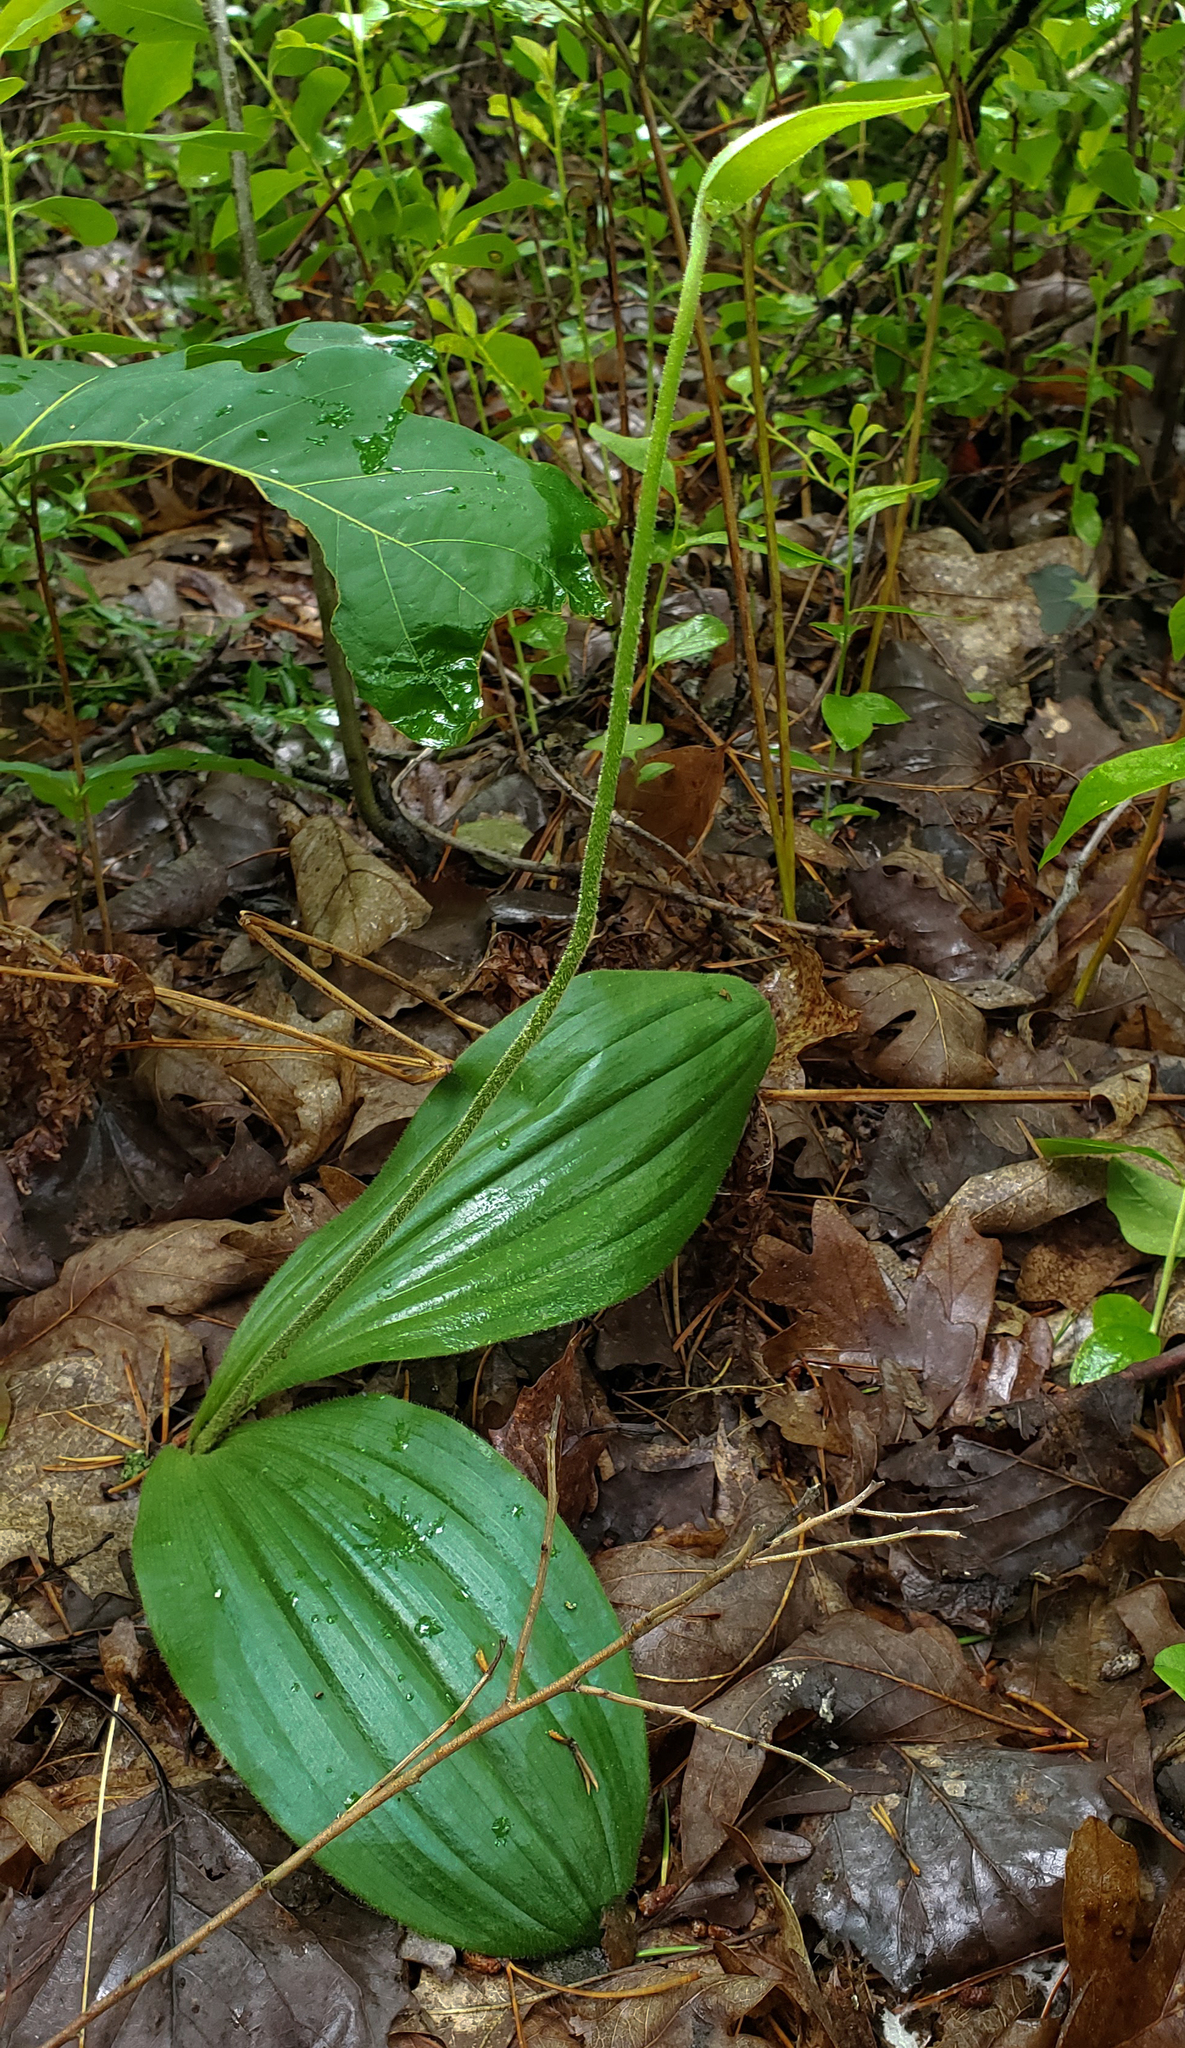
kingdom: Plantae
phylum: Tracheophyta
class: Liliopsida
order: Asparagales
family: Orchidaceae
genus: Cypripedium
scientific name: Cypripedium acaule
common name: Pink lady's-slipper
